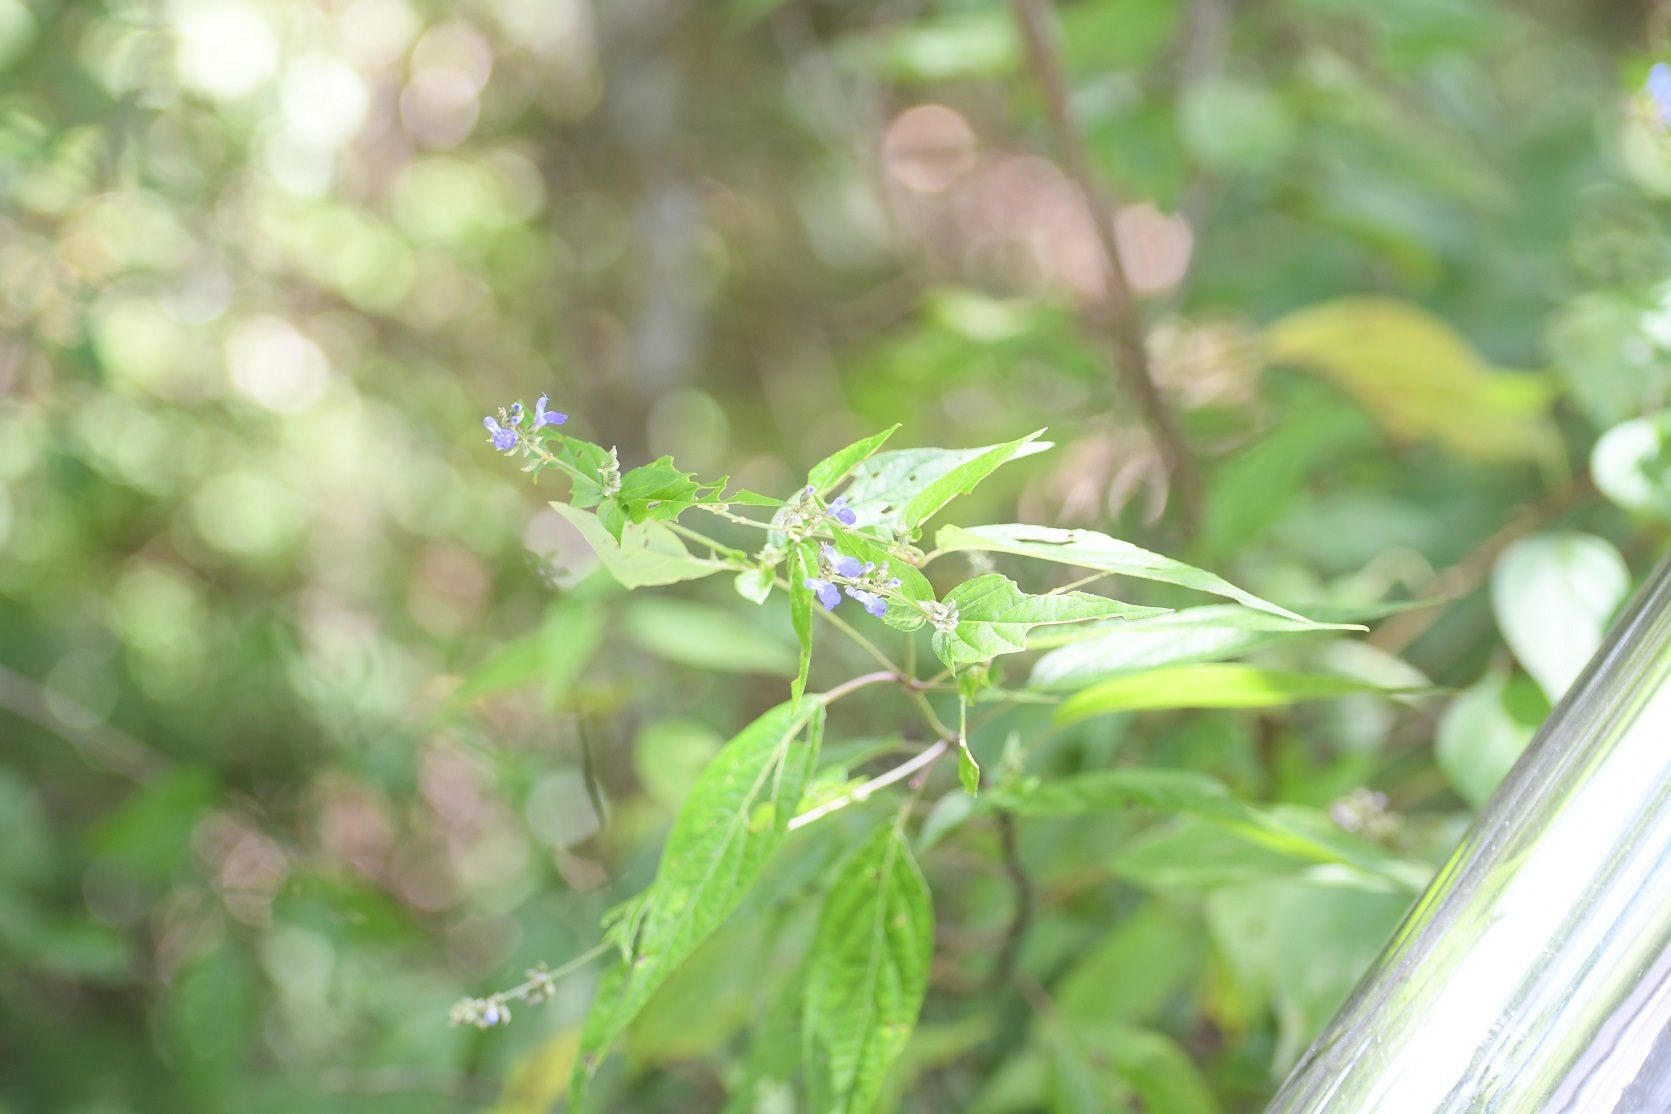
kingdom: Plantae
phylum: Tracheophyta
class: Magnoliopsida
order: Lamiales
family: Lamiaceae
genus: Salvia
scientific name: Salvia connivens
